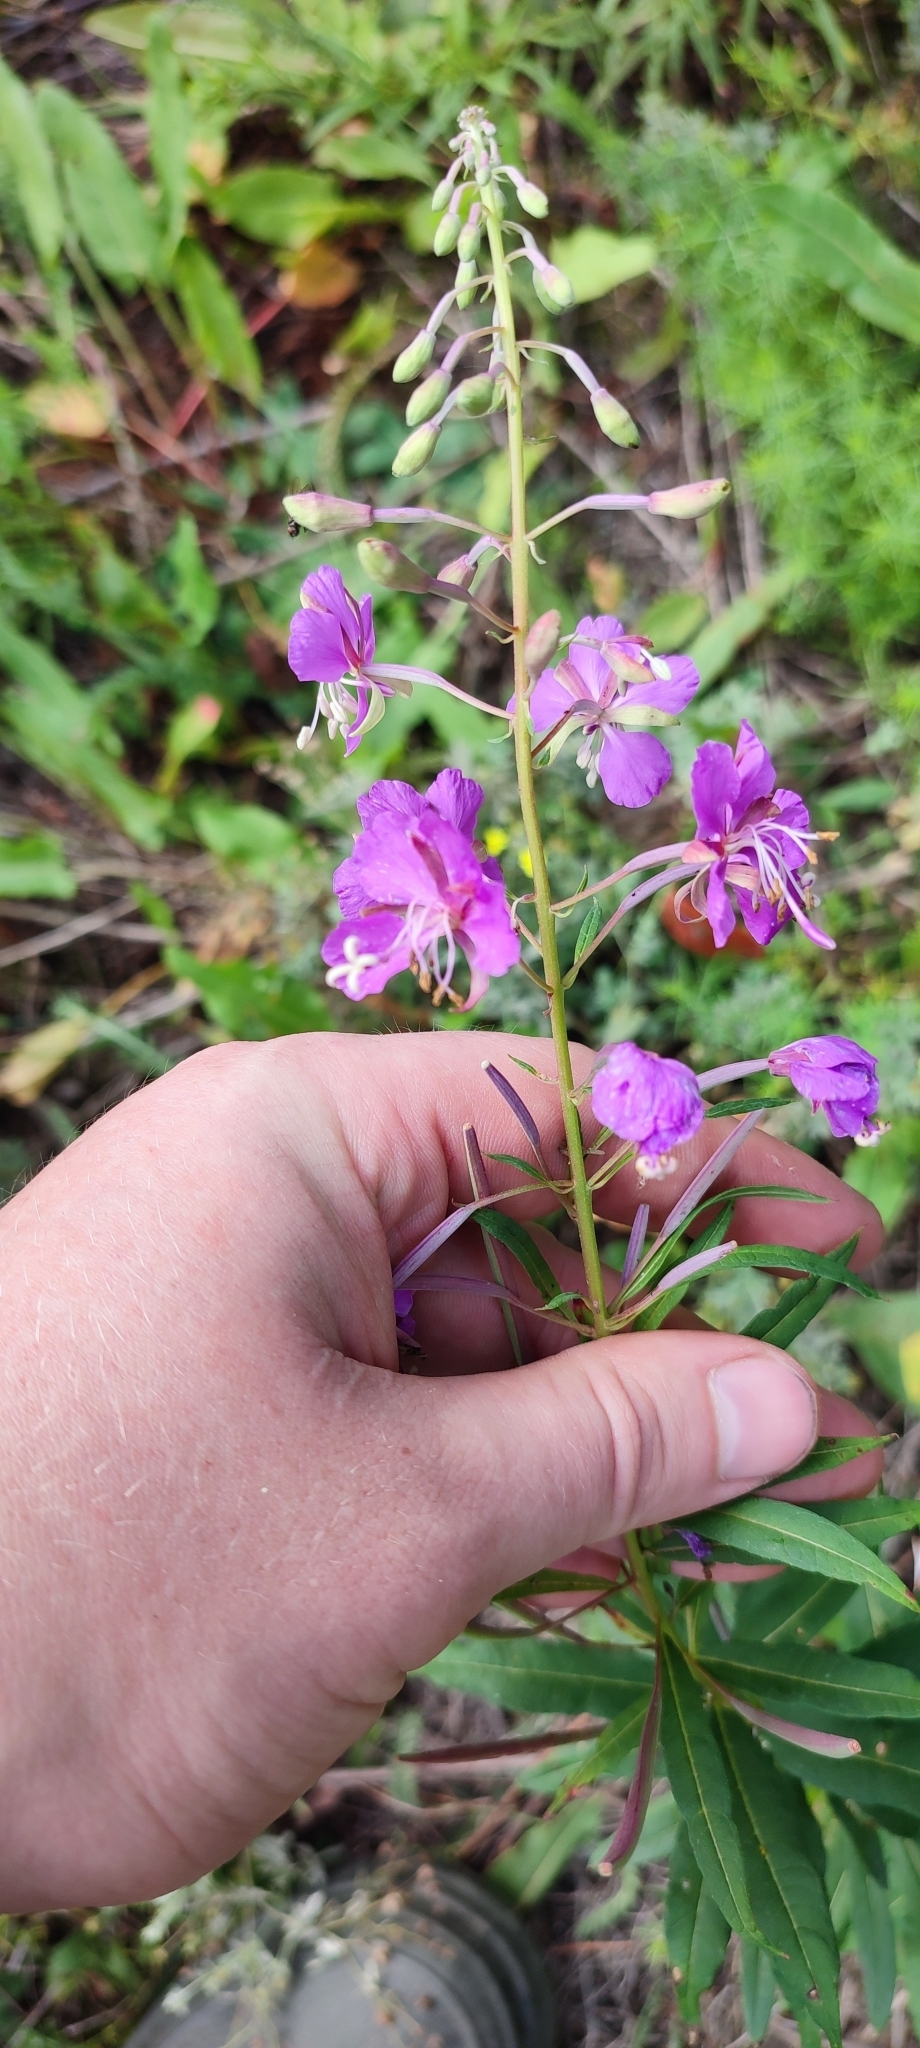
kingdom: Plantae
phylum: Tracheophyta
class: Magnoliopsida
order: Myrtales
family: Onagraceae
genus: Chamaenerion
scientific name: Chamaenerion angustifolium
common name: Fireweed
